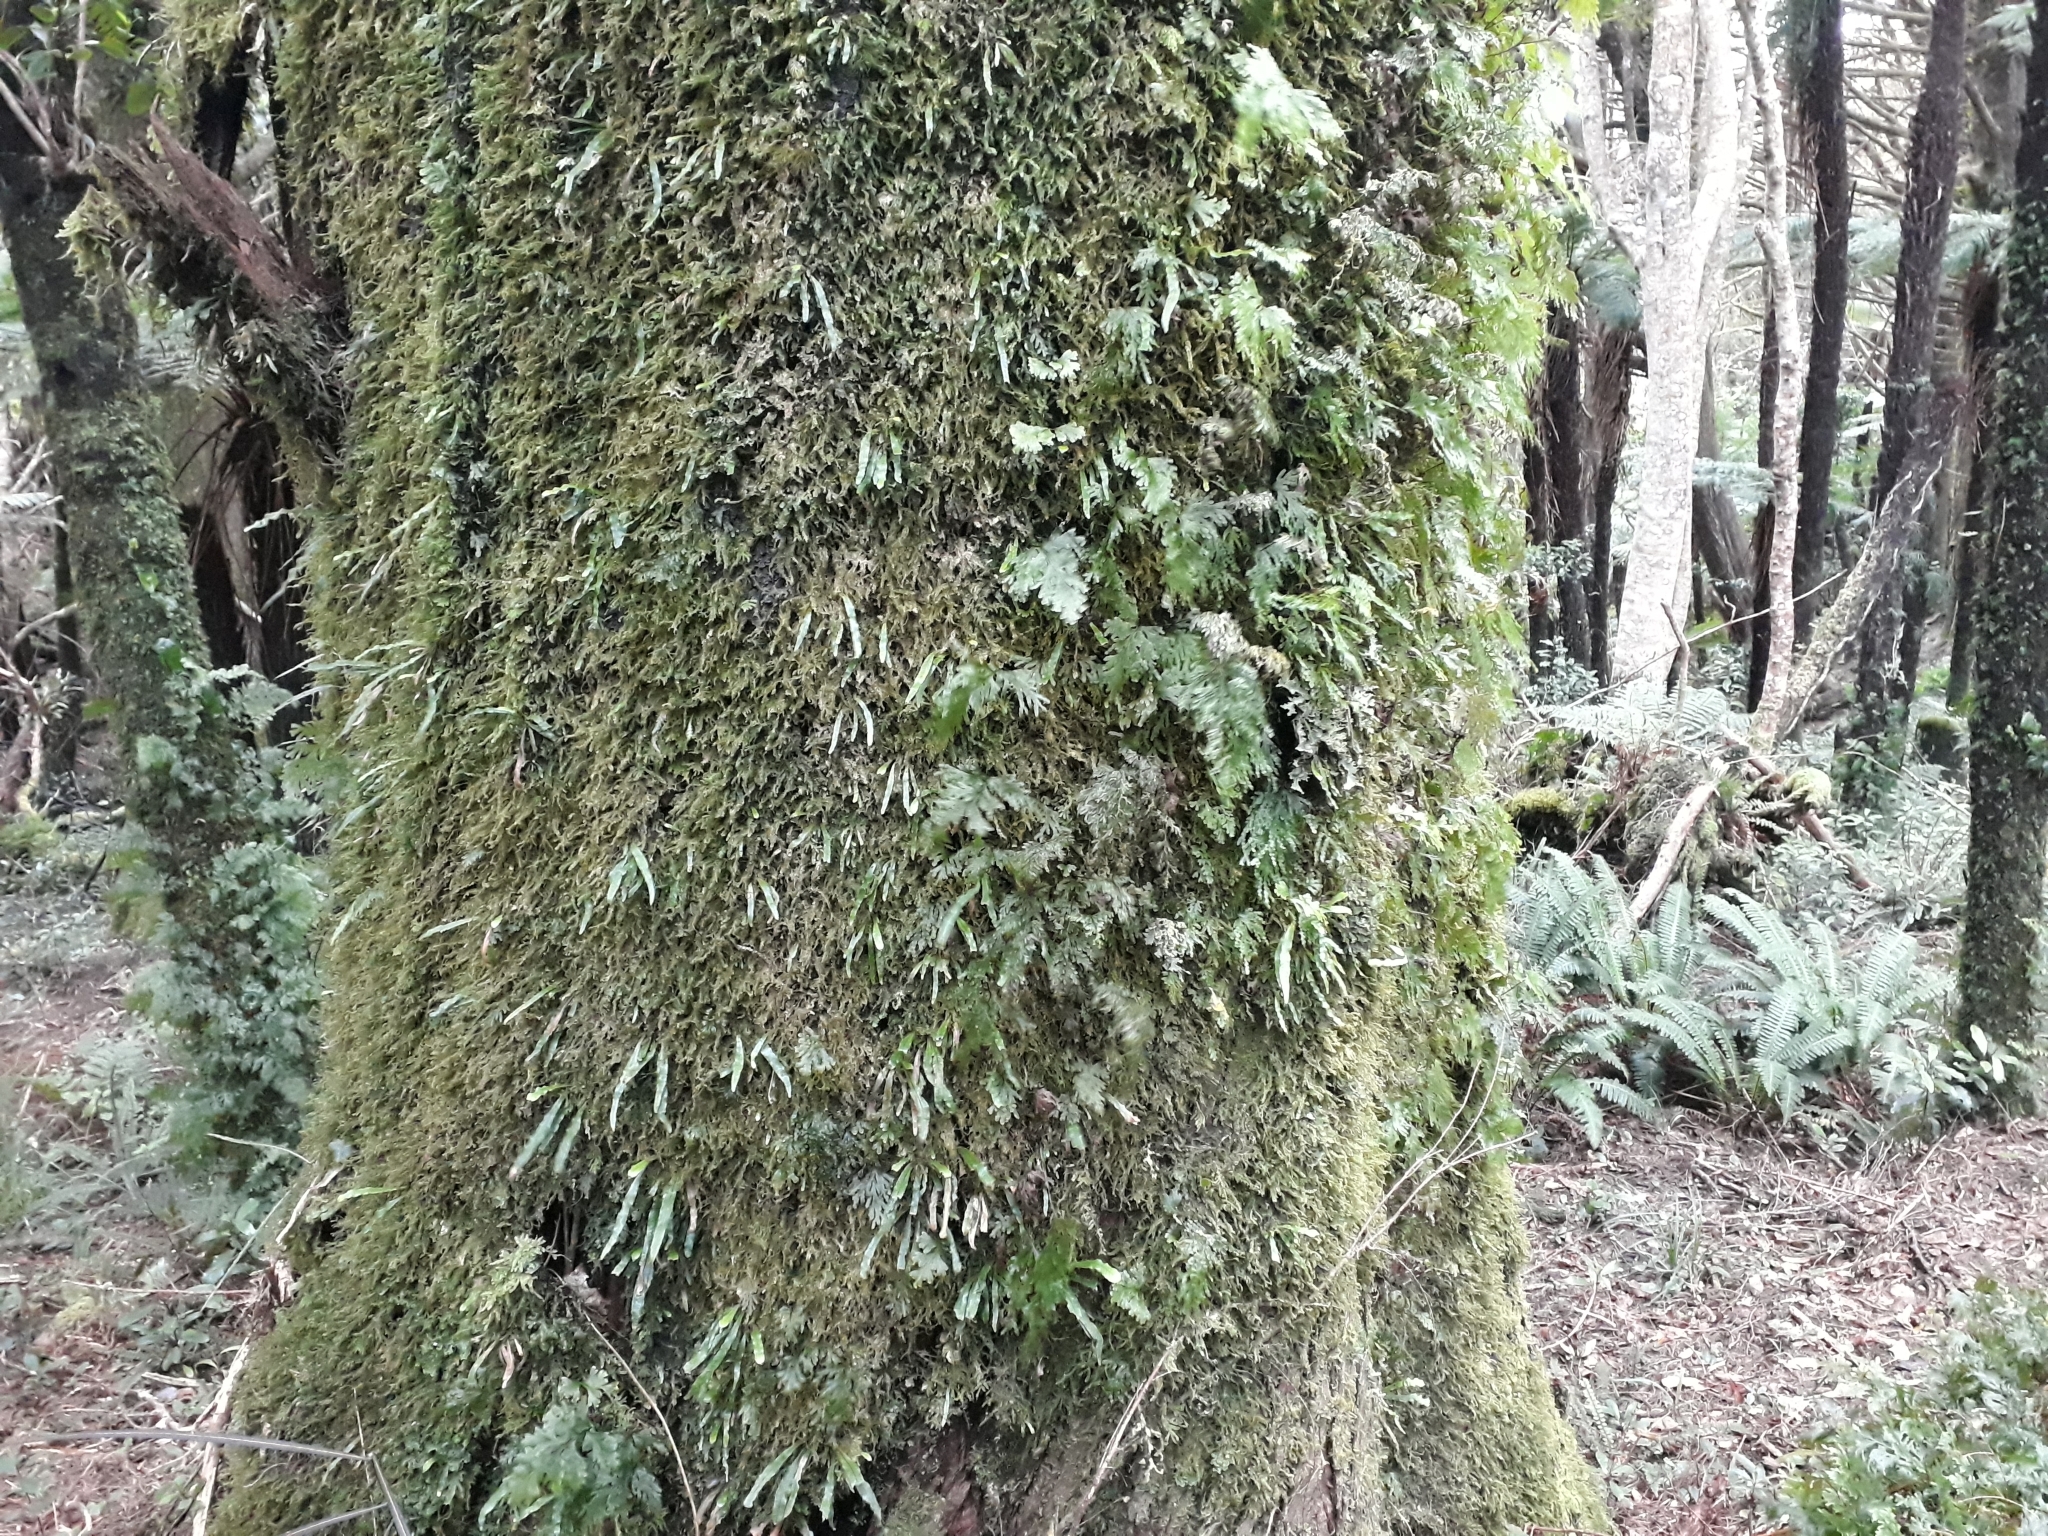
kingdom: Plantae
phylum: Tracheophyta
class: Polypodiopsida
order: Polypodiales
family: Polypodiaceae
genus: Notogrammitis
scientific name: Notogrammitis pseudociliata
